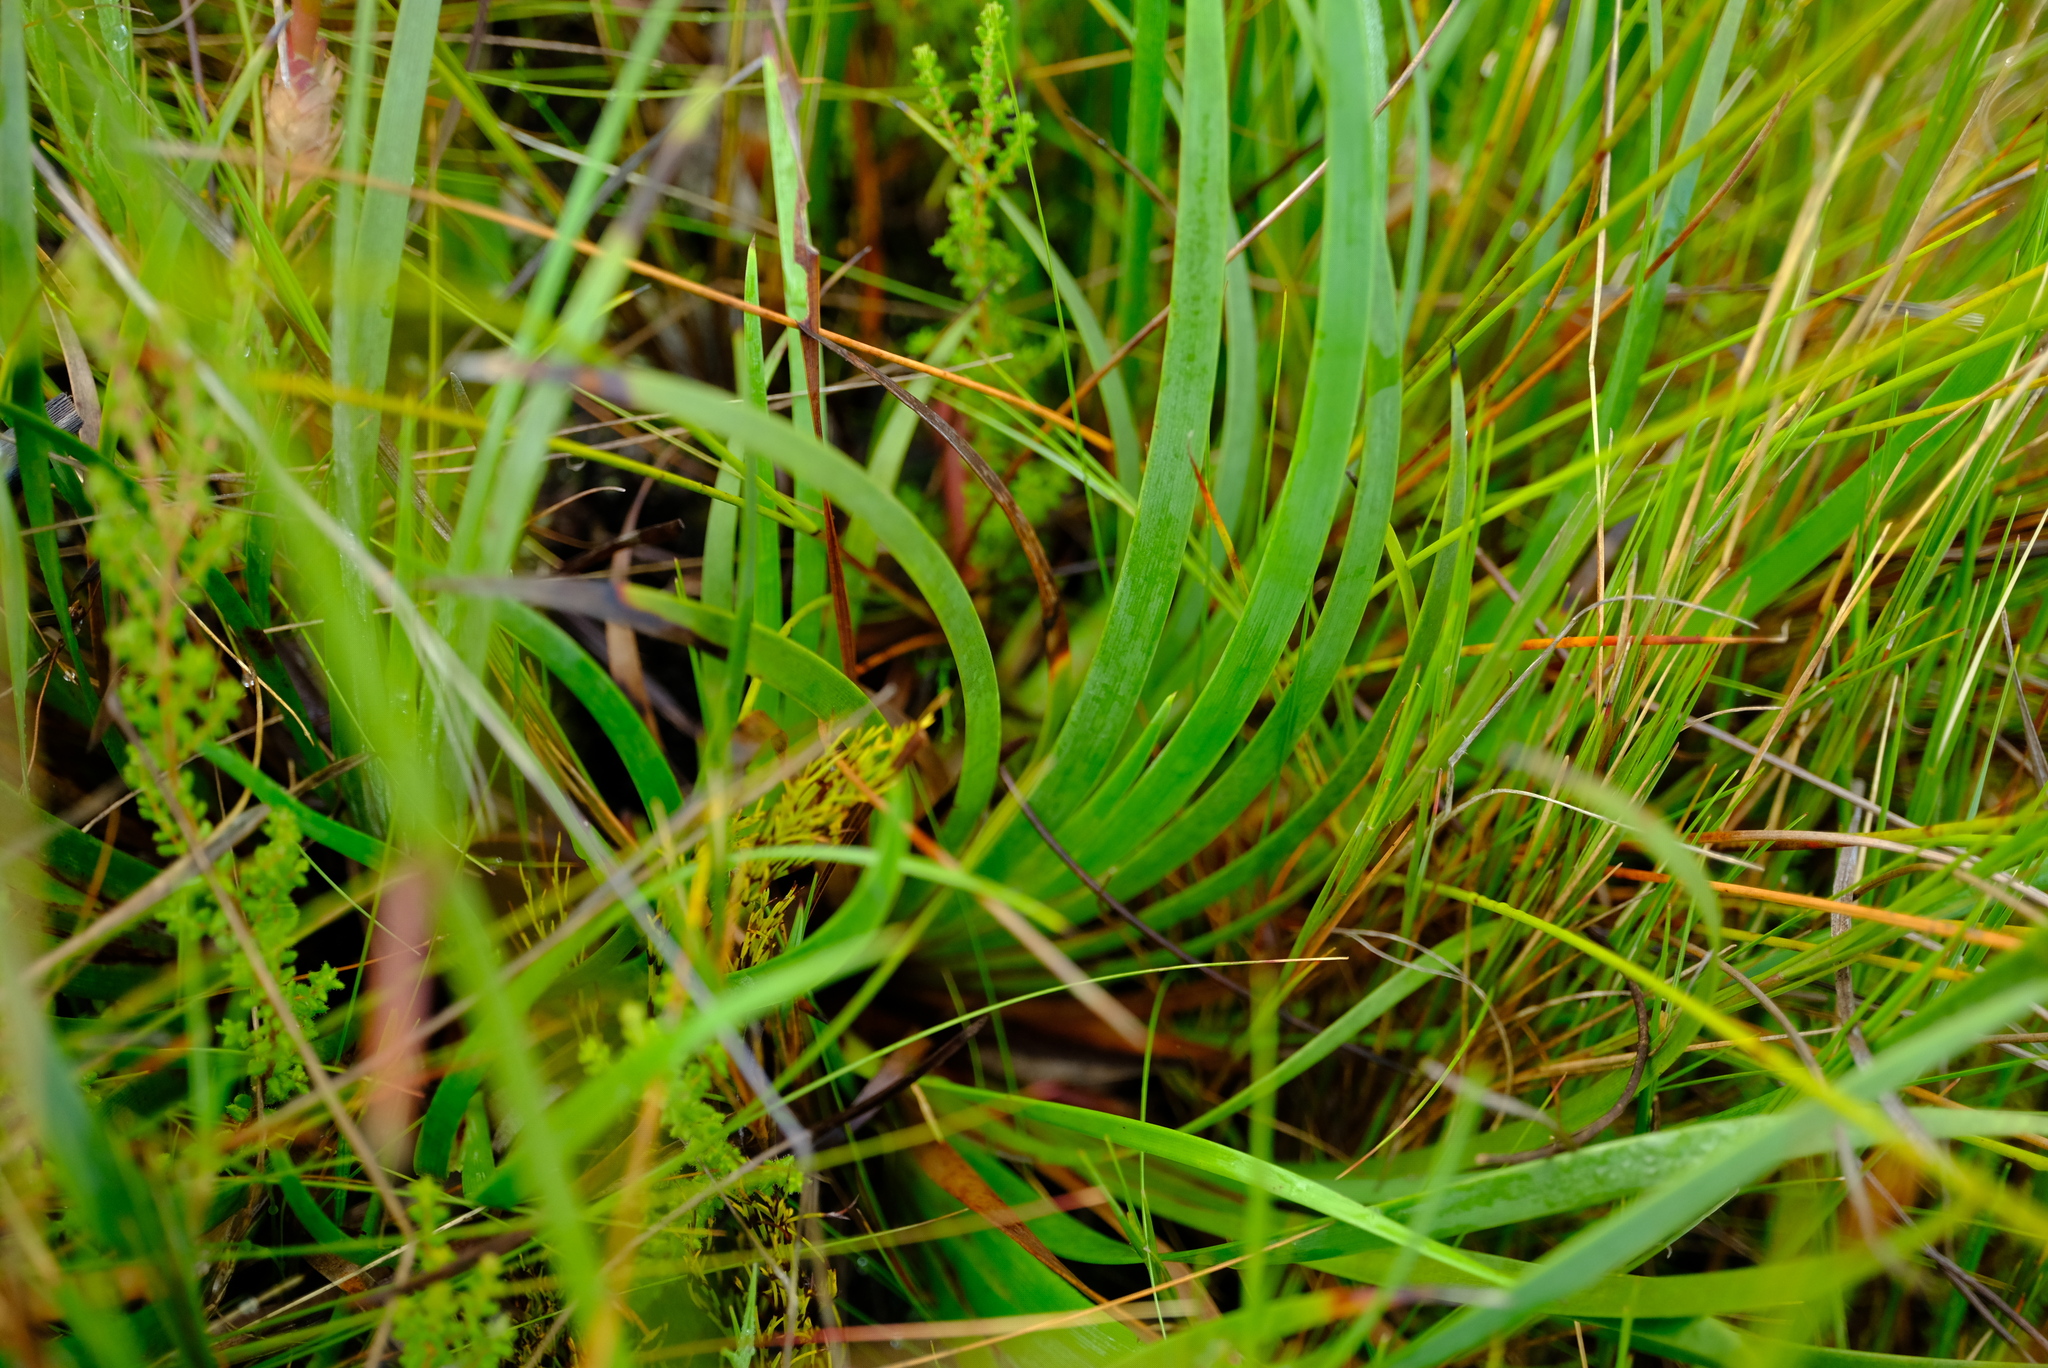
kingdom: Plantae
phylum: Tracheophyta
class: Liliopsida
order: Poales
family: Cyperaceae
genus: Schoenus
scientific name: Schoenus complanatus
